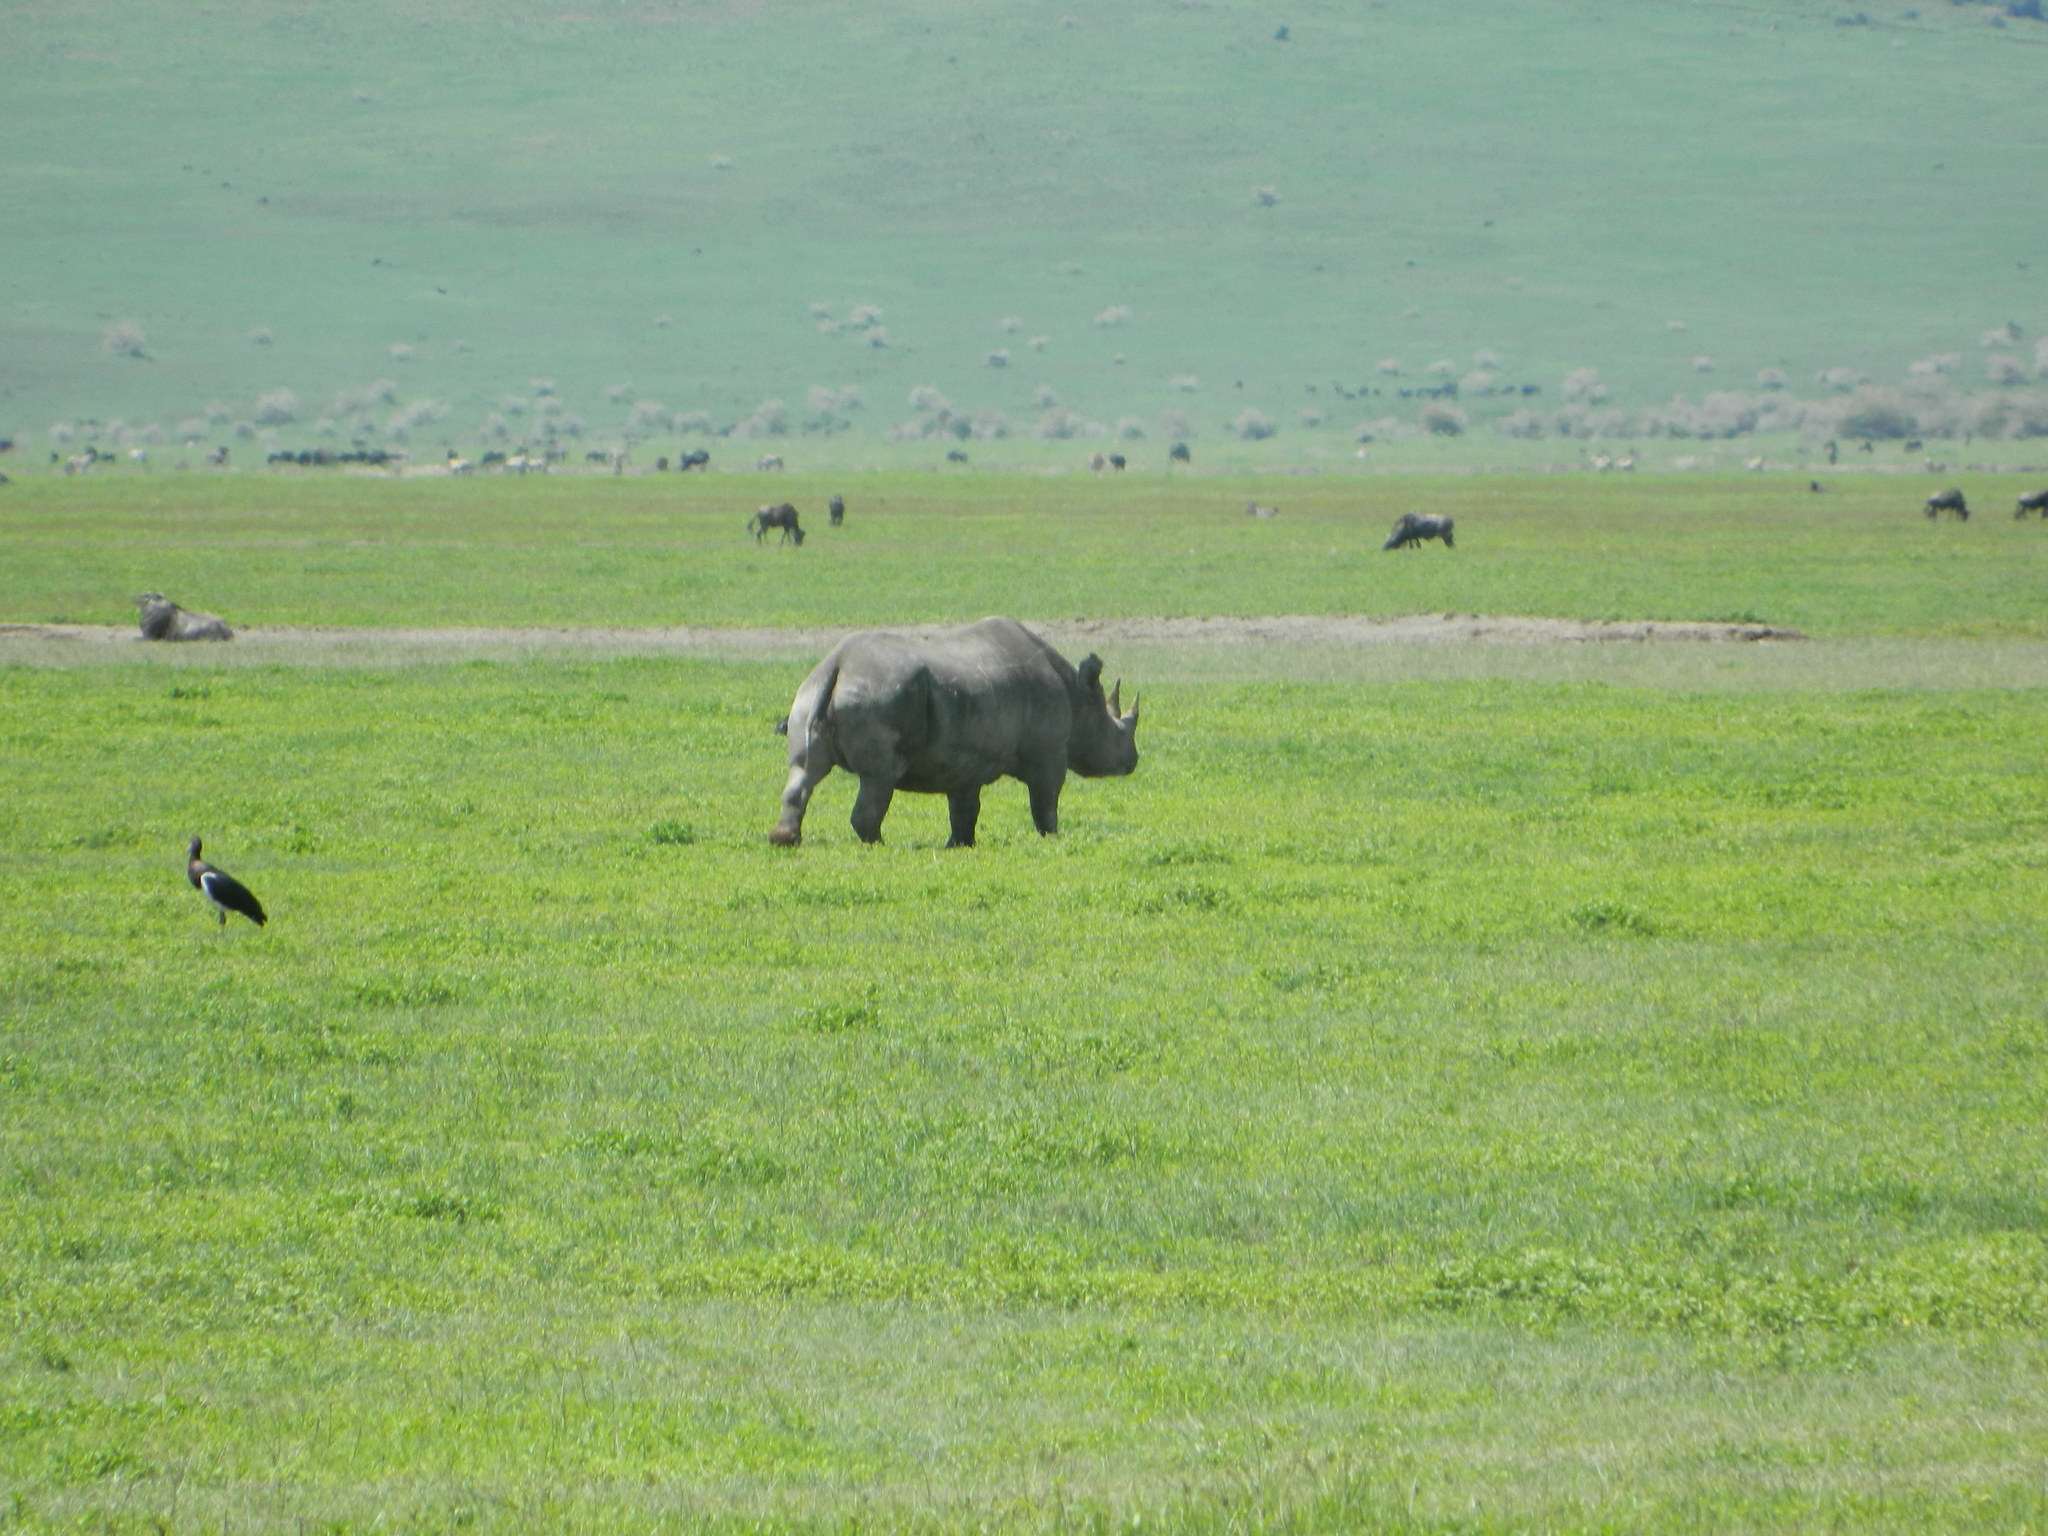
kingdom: Animalia
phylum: Chordata
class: Mammalia
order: Perissodactyla
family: Rhinocerotidae
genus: Diceros
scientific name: Diceros bicornis
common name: Black rhinoceros
